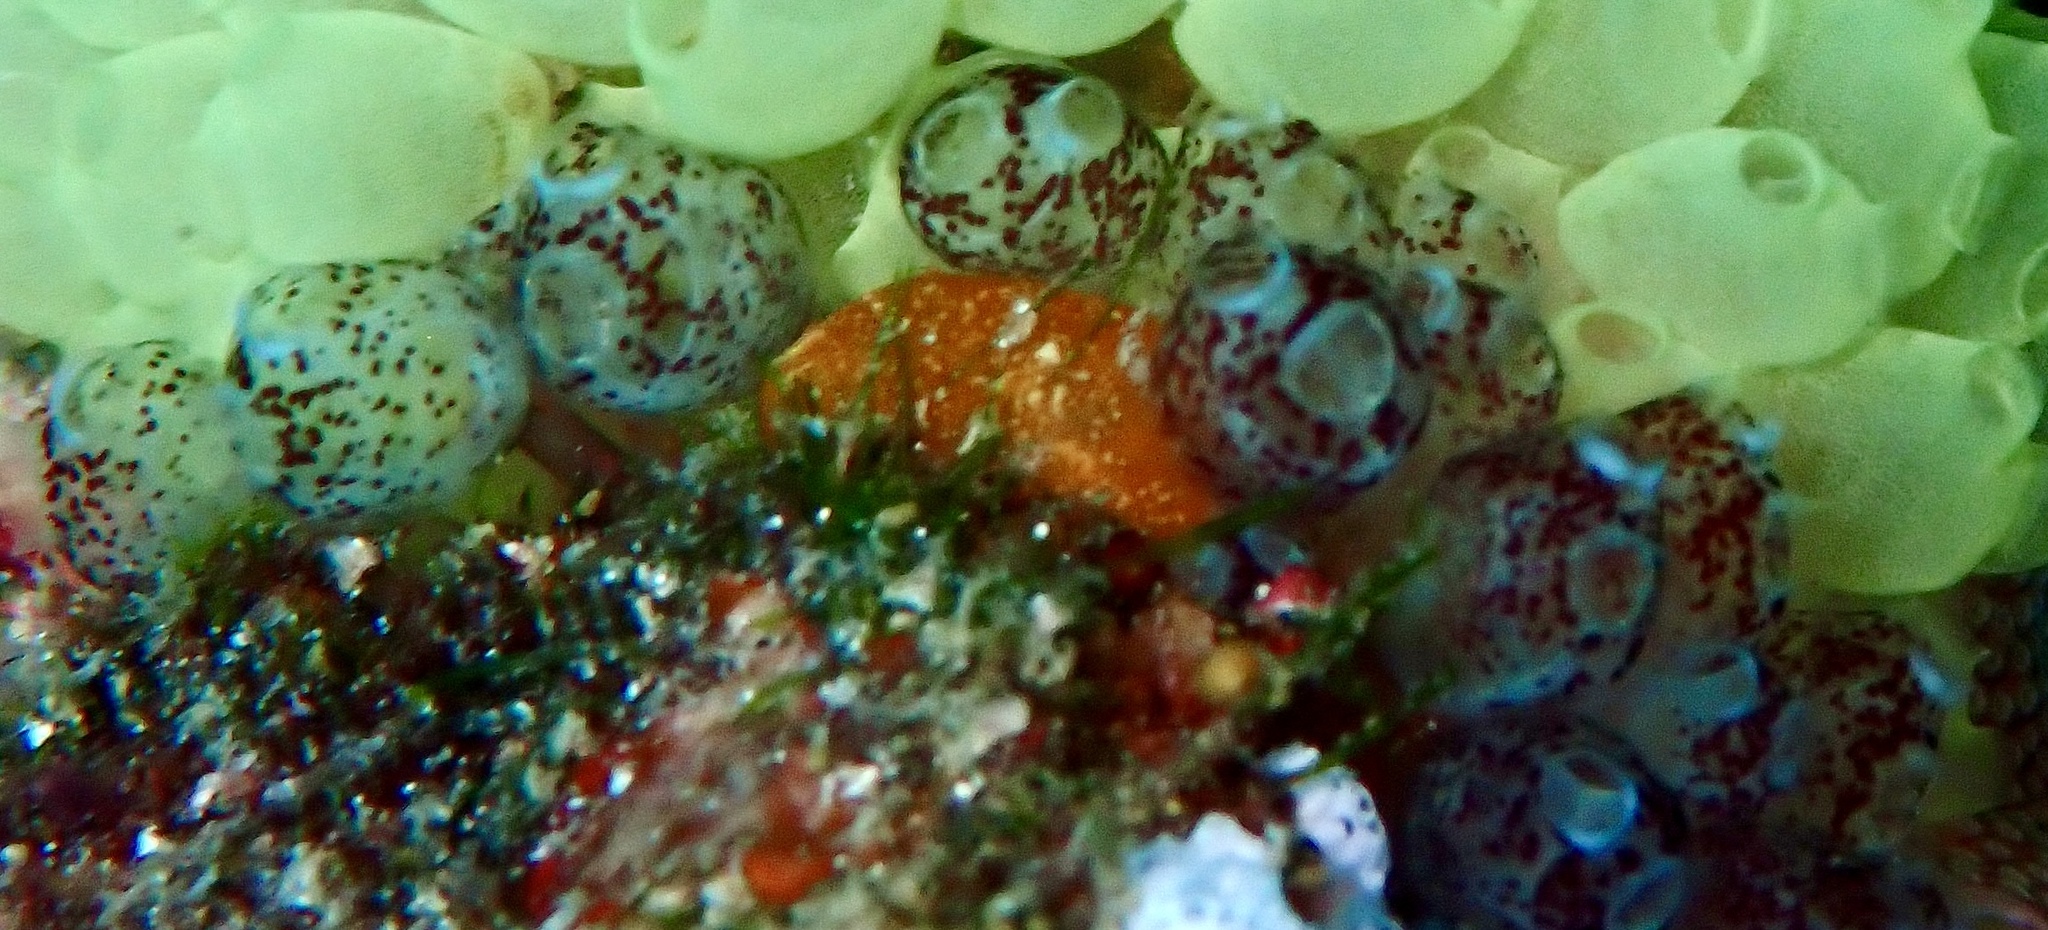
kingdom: Animalia
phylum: Chordata
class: Ascidiacea
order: Aplousobranchia
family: Clavelinidae
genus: Pycnoclavella
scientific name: Pycnoclavella diminuta
